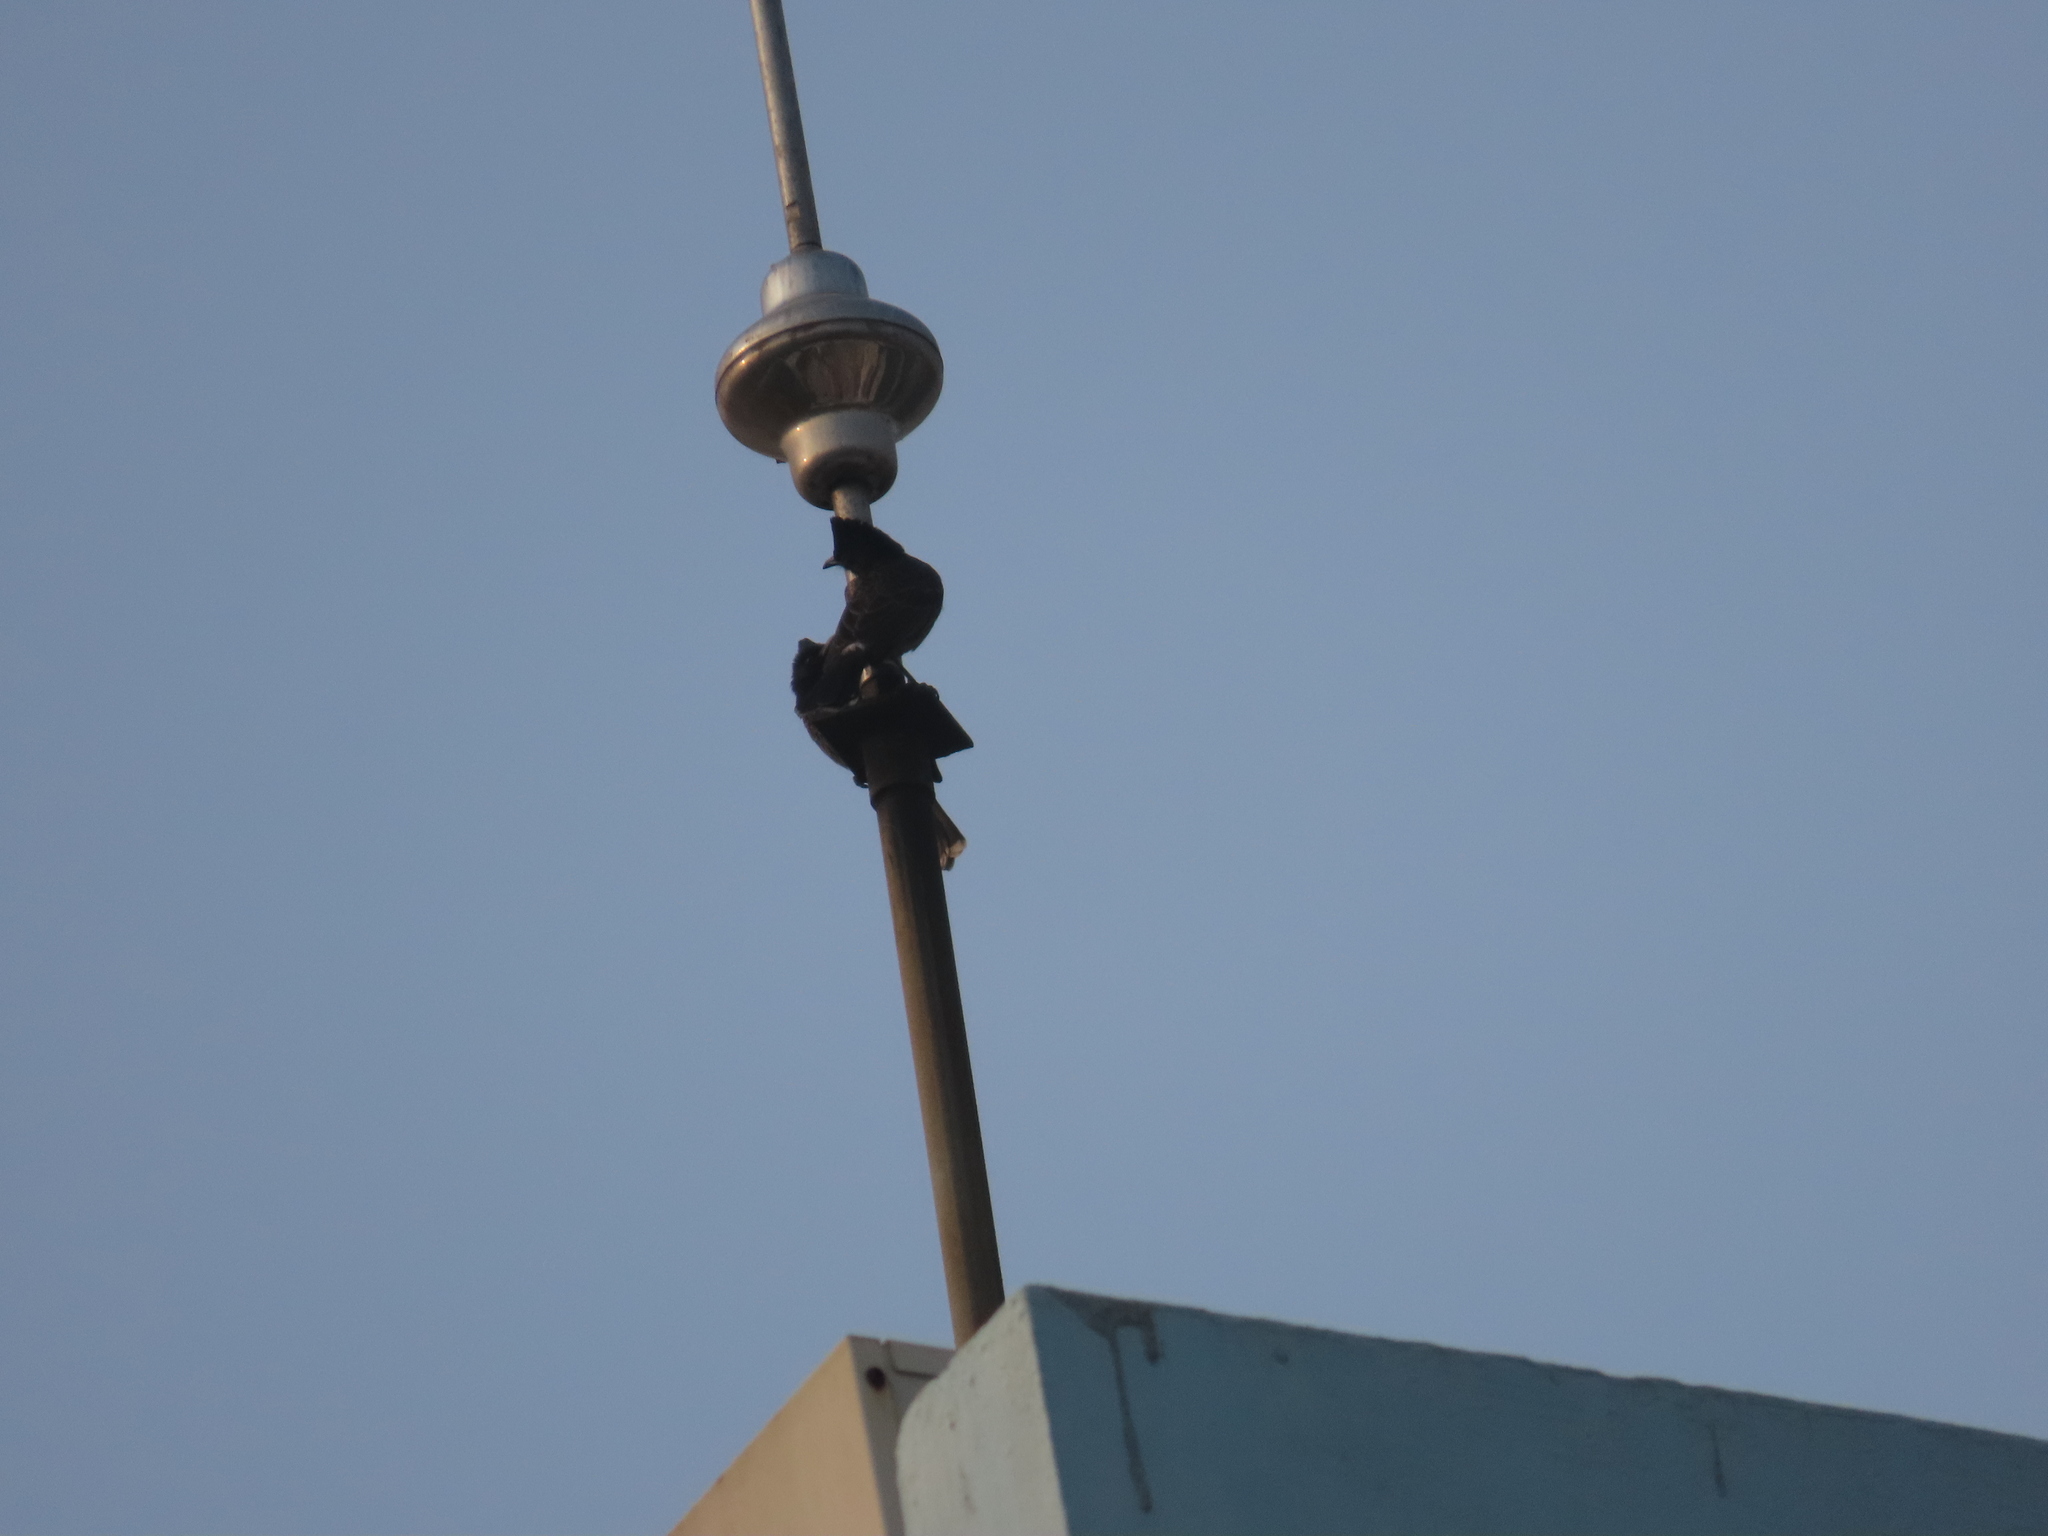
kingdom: Animalia
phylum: Chordata
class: Aves
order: Passeriformes
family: Pycnonotidae
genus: Pycnonotus
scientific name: Pycnonotus cafer
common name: Red-vented bulbul
